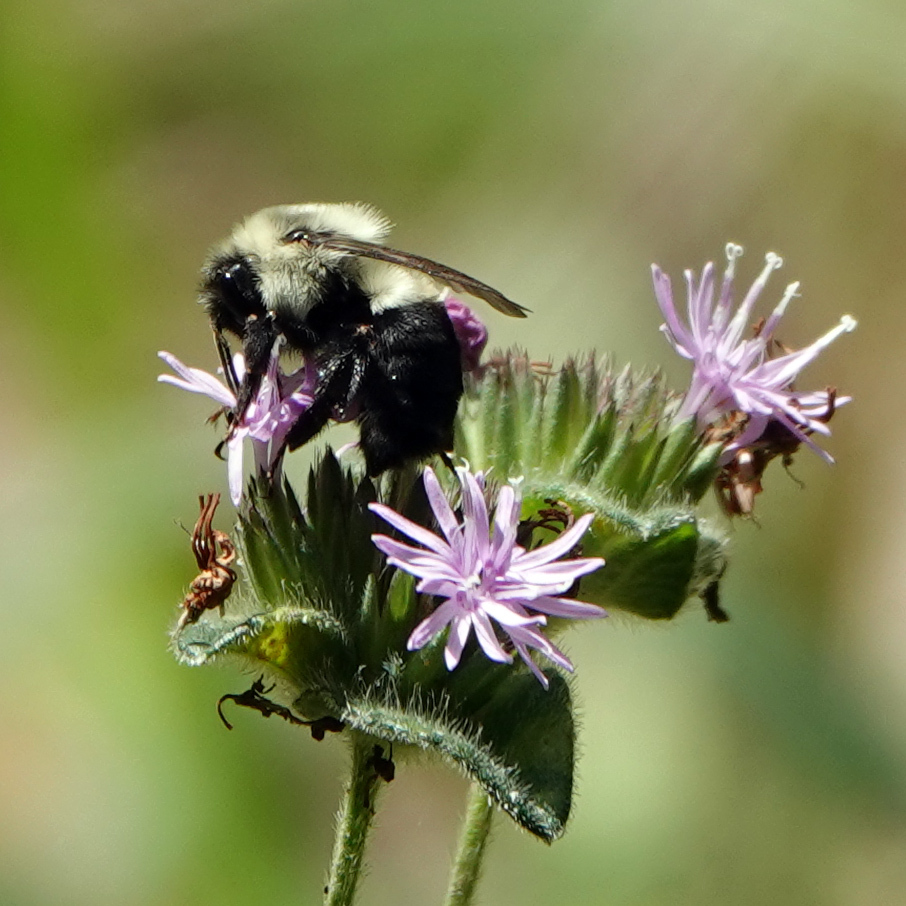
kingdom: Animalia
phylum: Arthropoda
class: Insecta
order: Hymenoptera
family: Apidae
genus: Bombus
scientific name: Bombus impatiens
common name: Common eastern bumble bee
